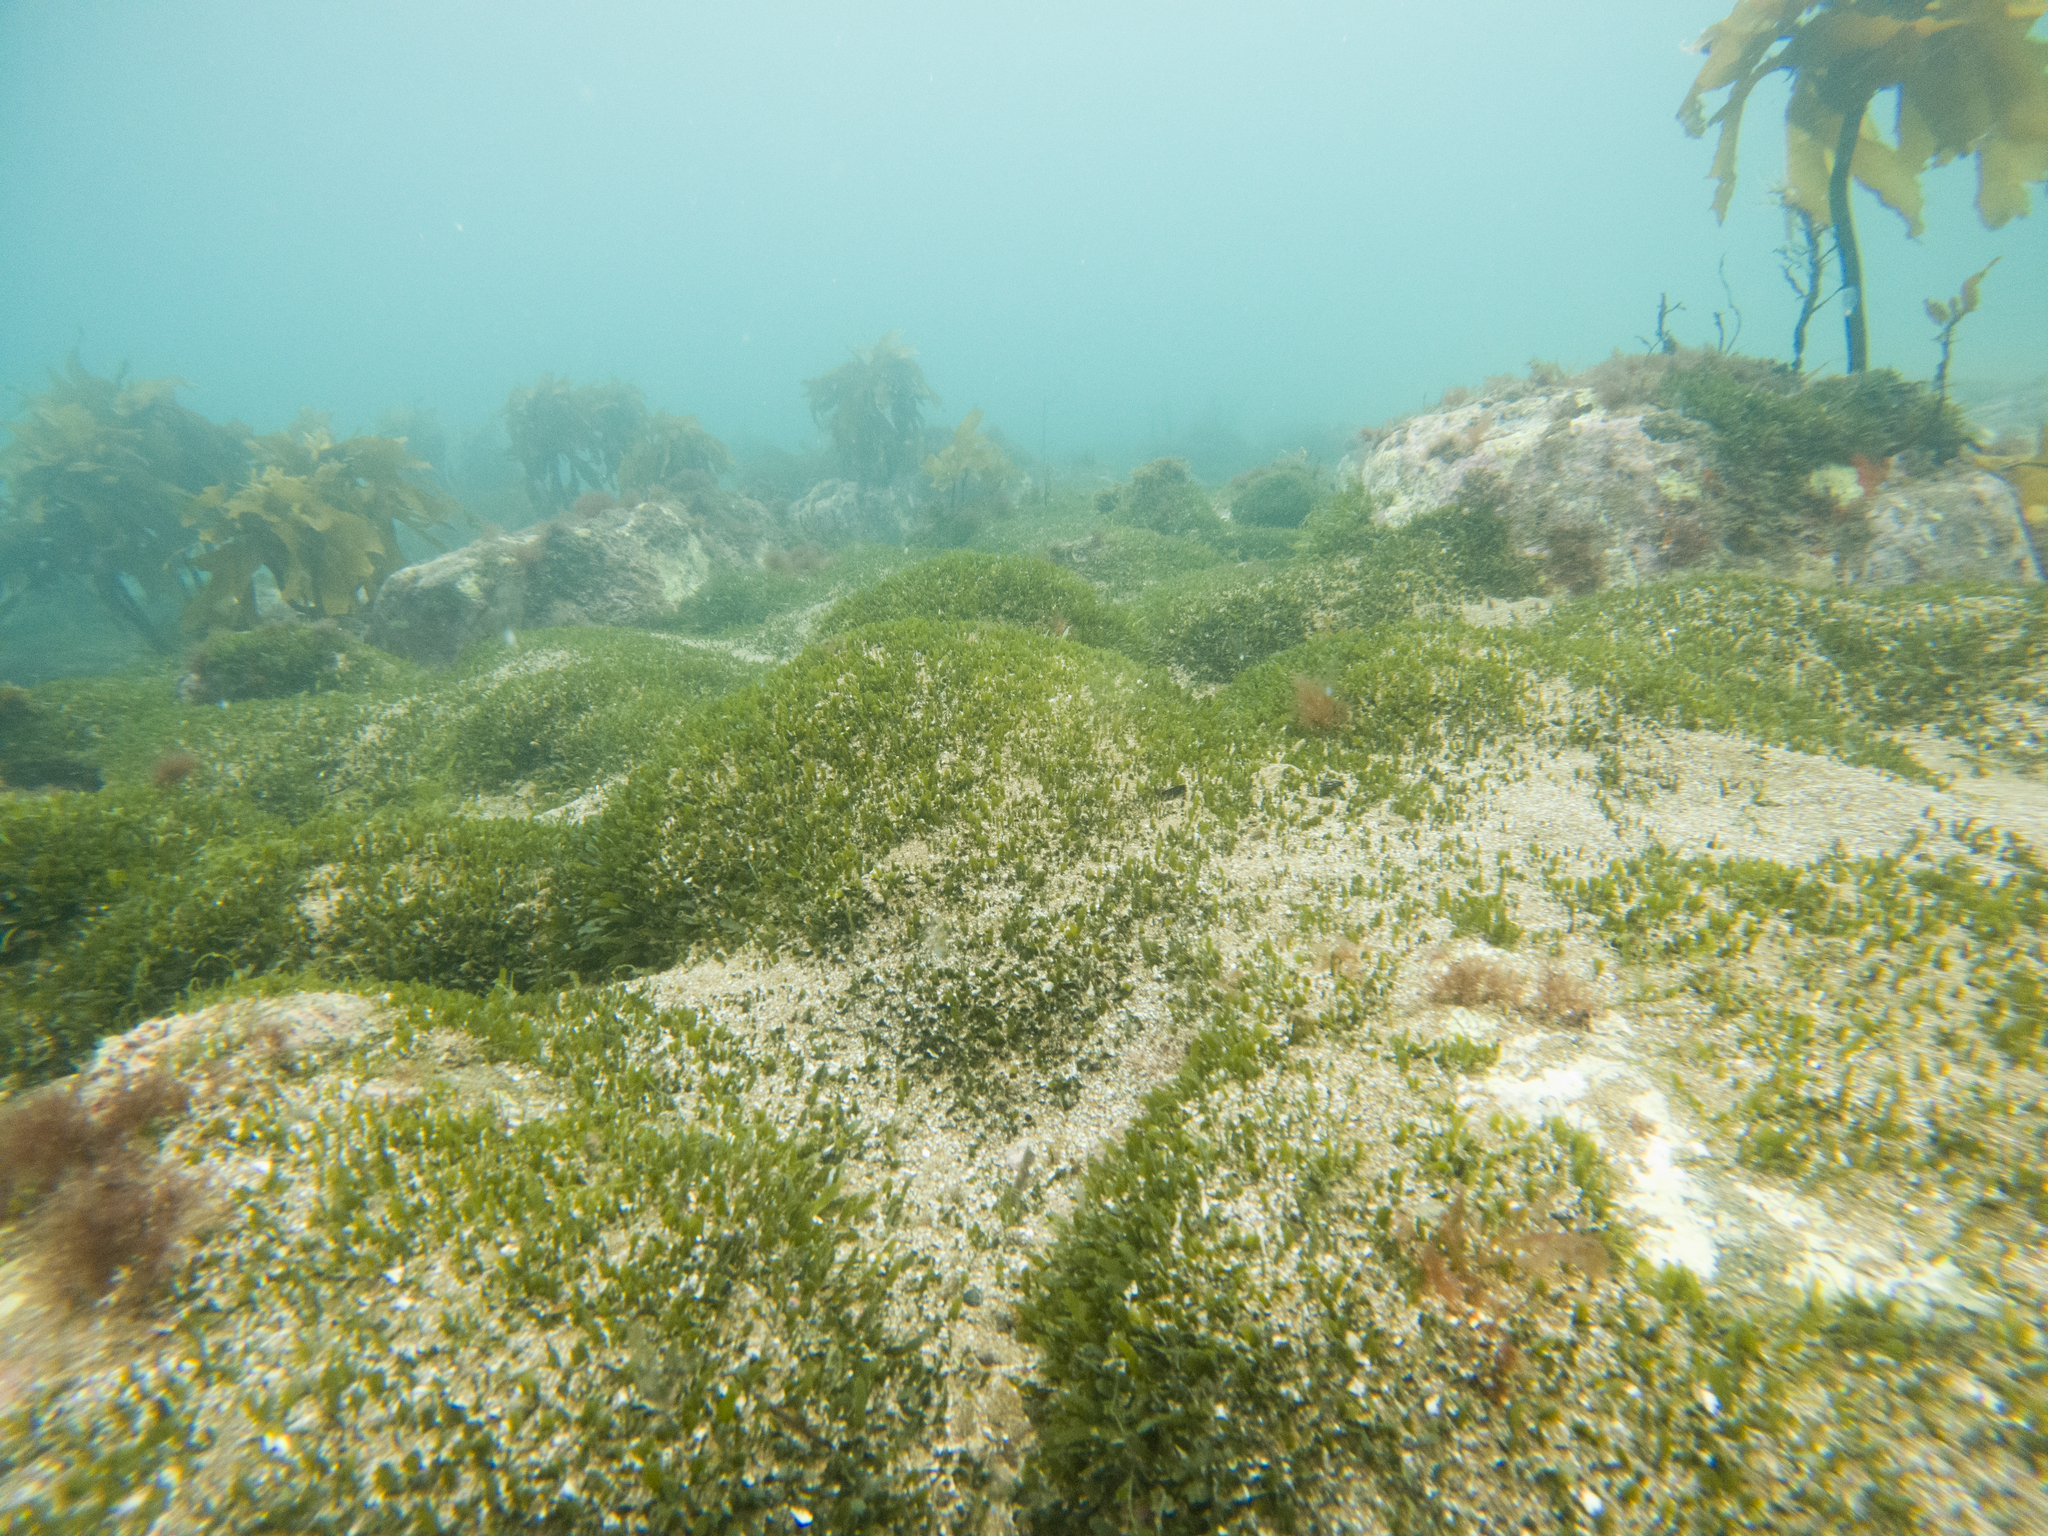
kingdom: Plantae
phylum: Chlorophyta
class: Ulvophyceae
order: Bryopsidales
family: Caulerpaceae
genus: Caulerpa
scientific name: Caulerpa brachypus
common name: Macroalgae
